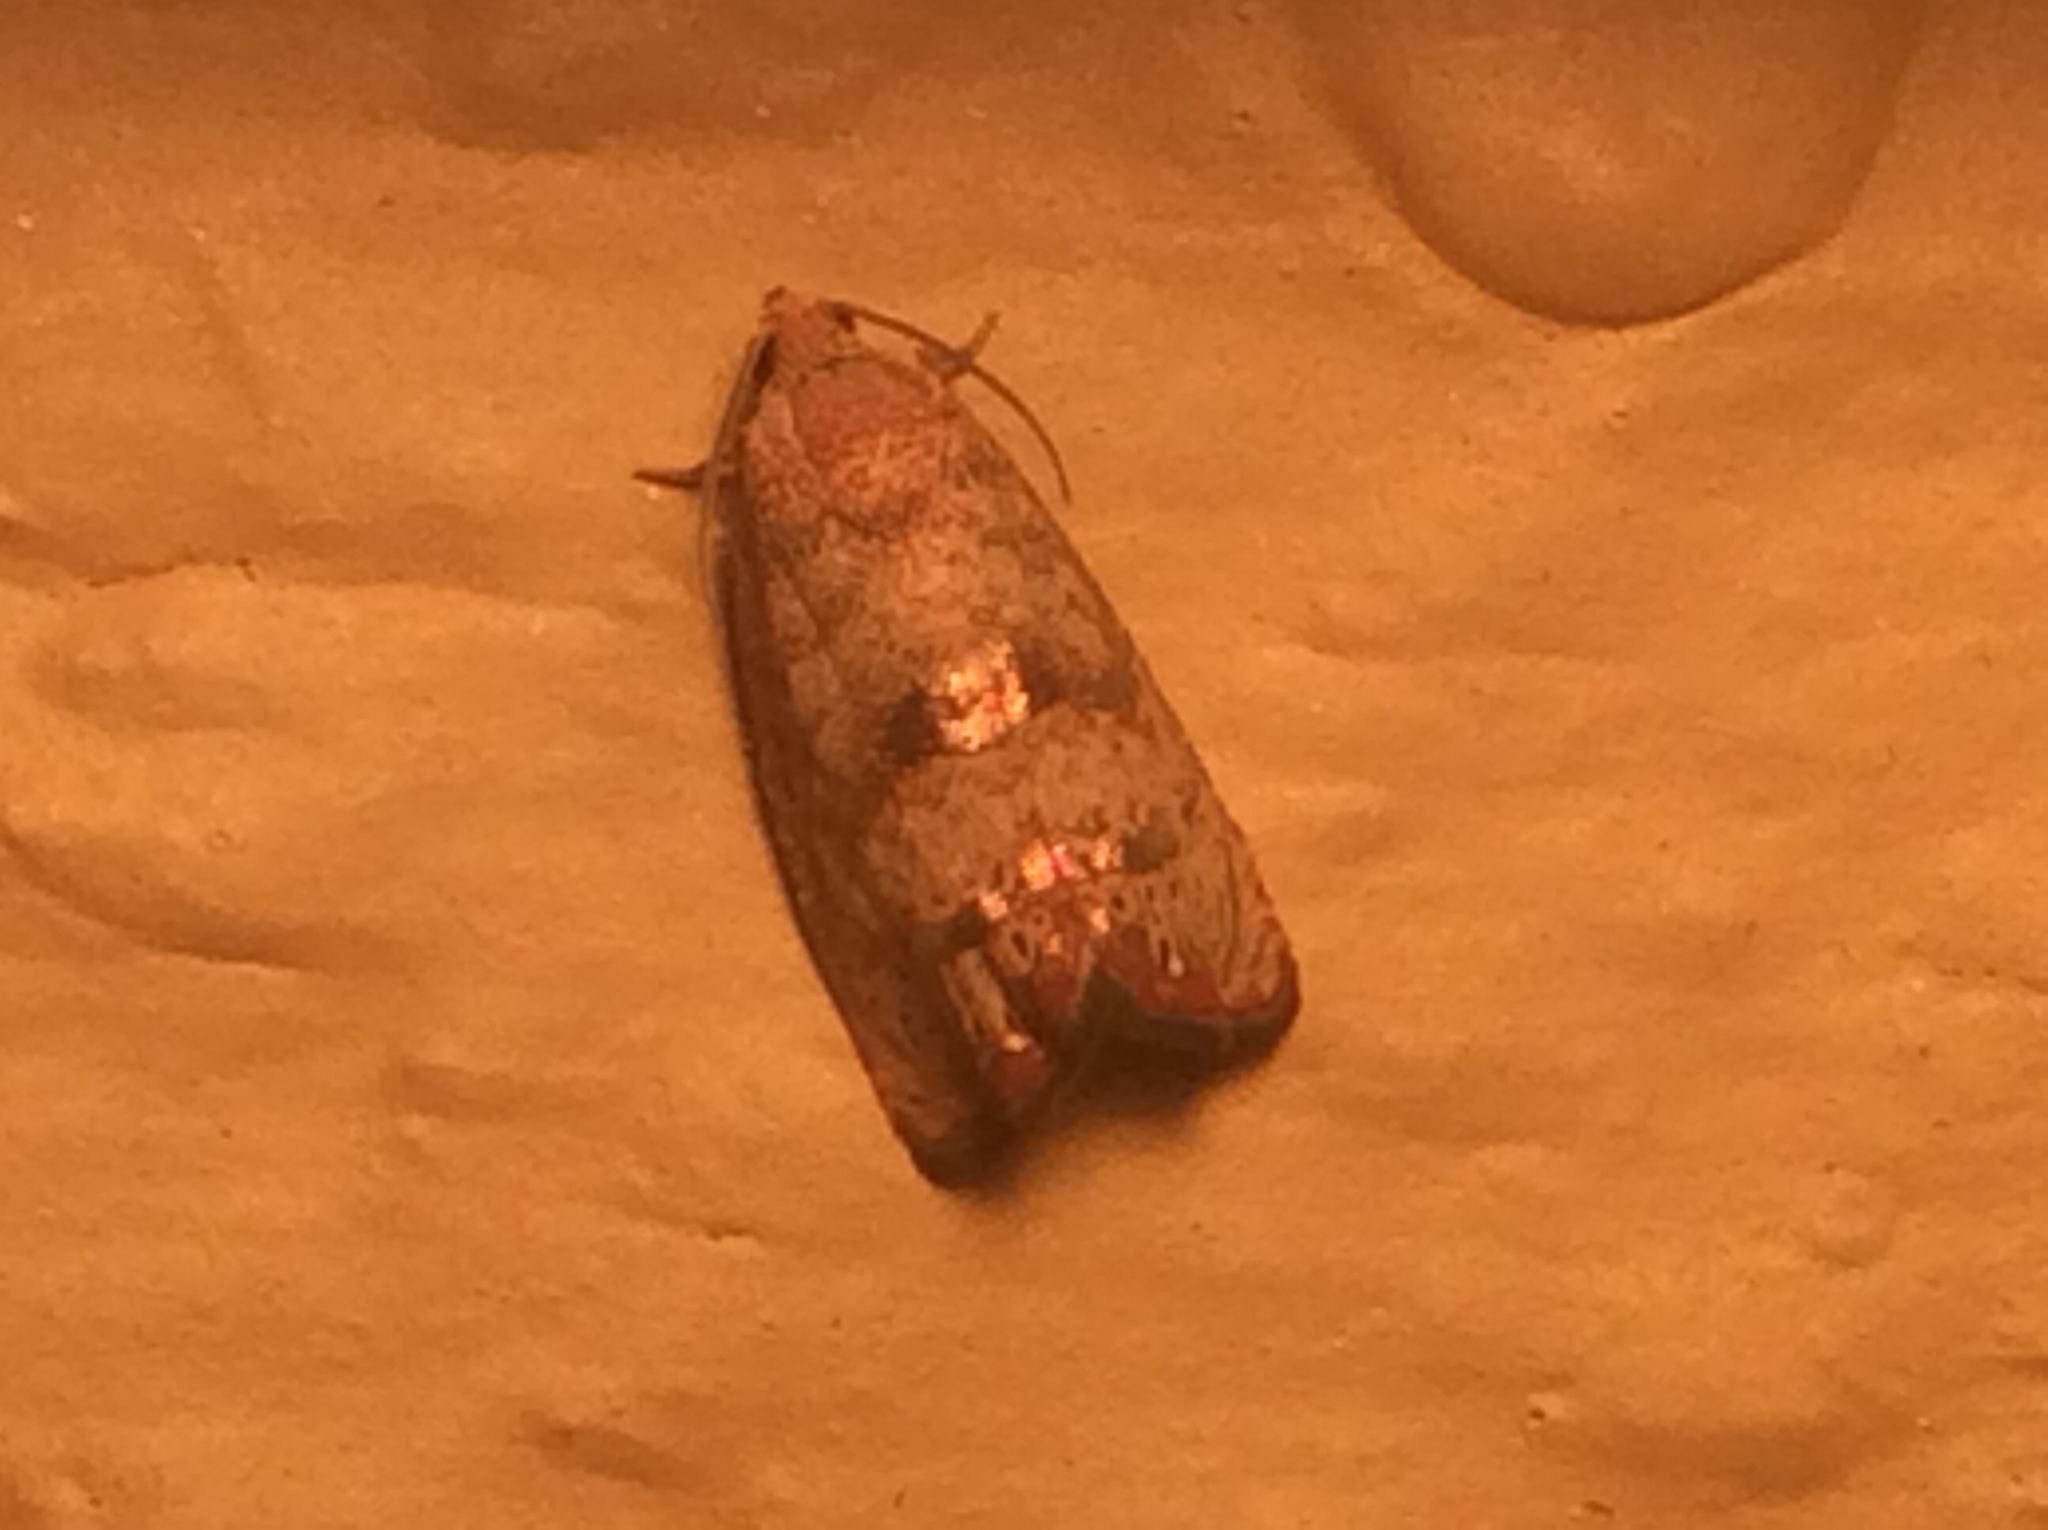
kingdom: Animalia
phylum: Arthropoda
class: Insecta
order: Lepidoptera
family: Tortricidae
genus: Cydia
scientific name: Cydia latiferreana
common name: Filbertworm moth
